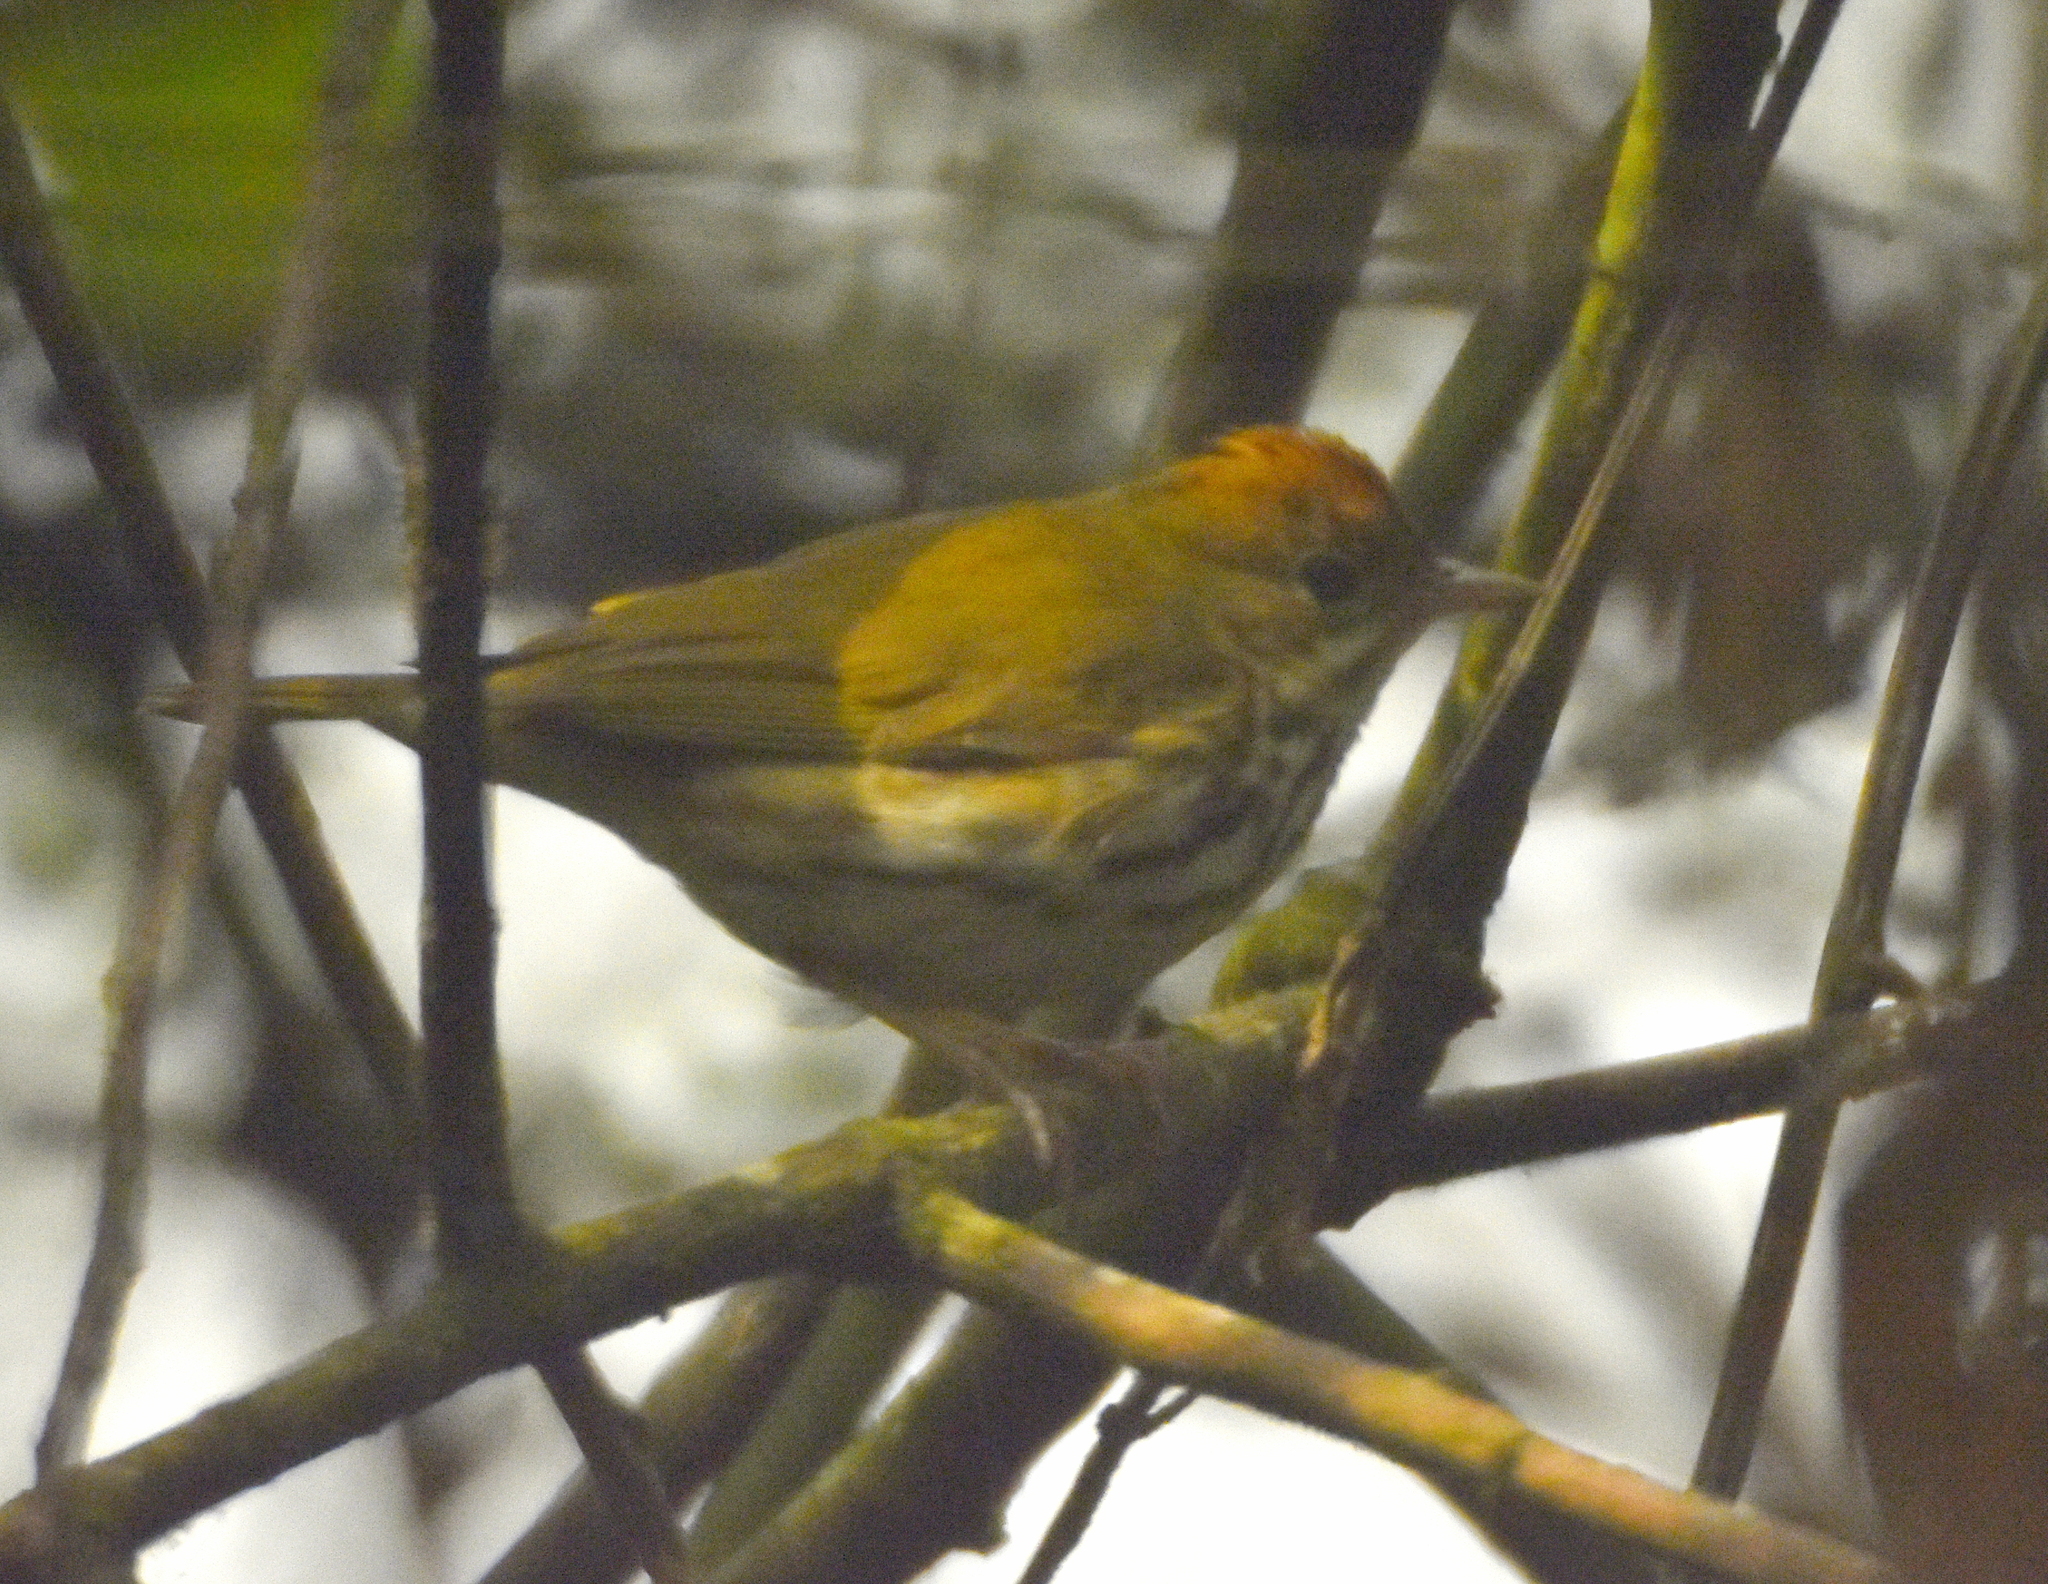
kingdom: Animalia
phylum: Chordata
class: Aves
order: Passeriformes
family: Parulidae
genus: Seiurus
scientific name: Seiurus aurocapilla
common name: Ovenbird
